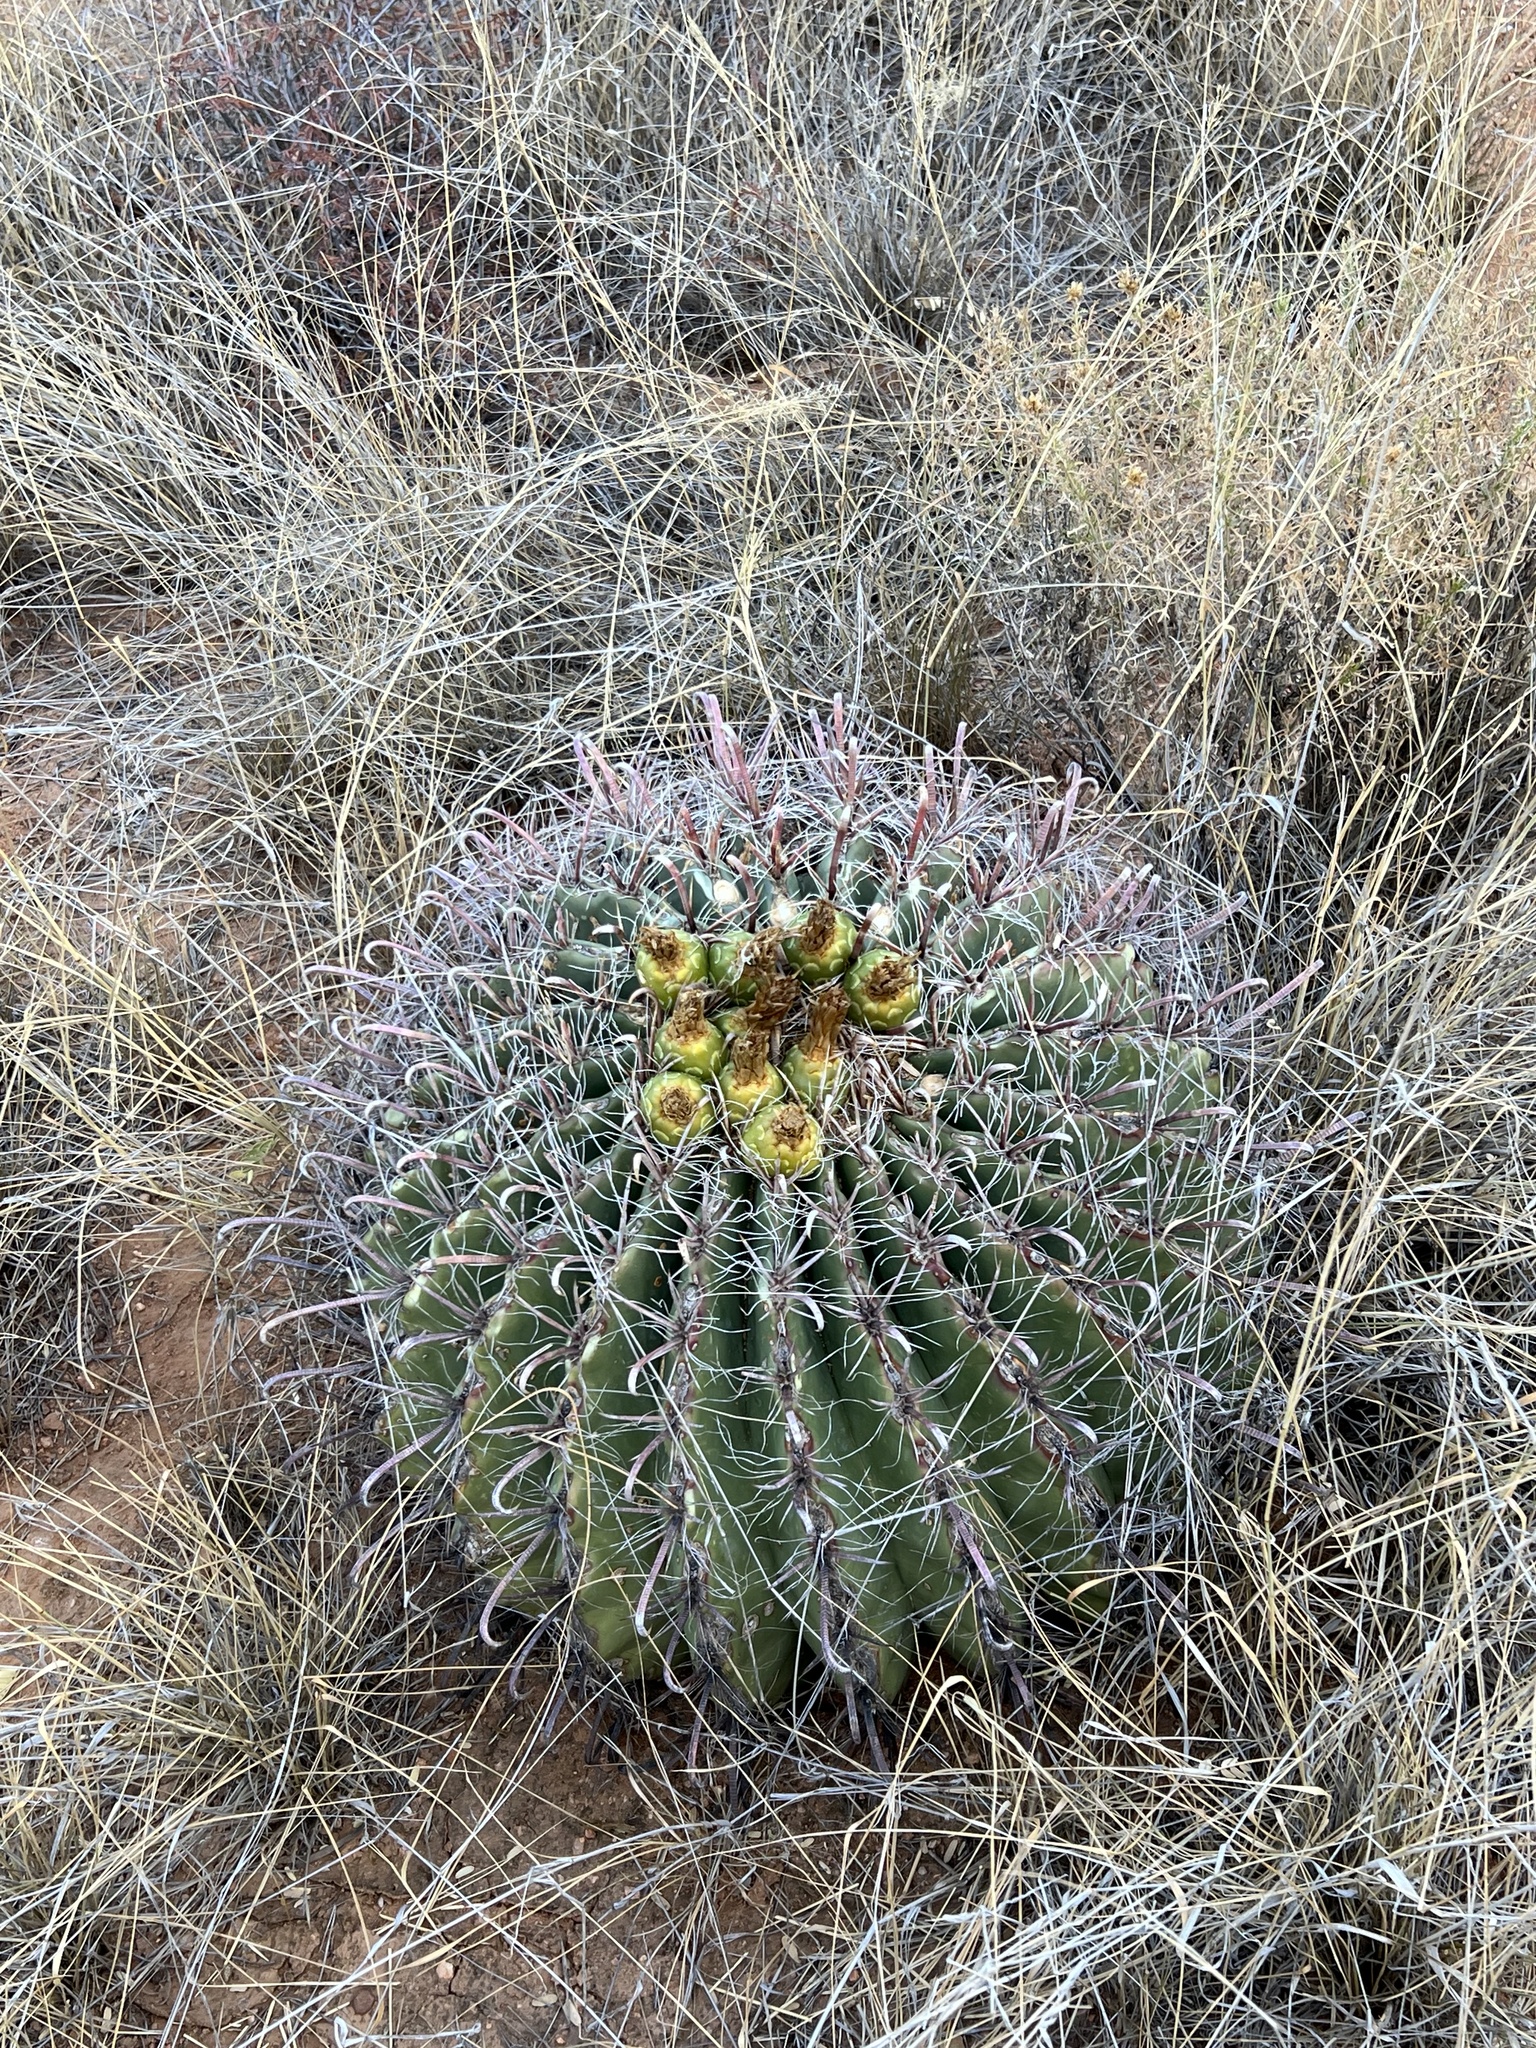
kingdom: Plantae
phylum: Tracheophyta
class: Magnoliopsida
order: Caryophyllales
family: Cactaceae
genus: Ferocactus
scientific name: Ferocactus wislizeni
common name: Candy barrel cactus
